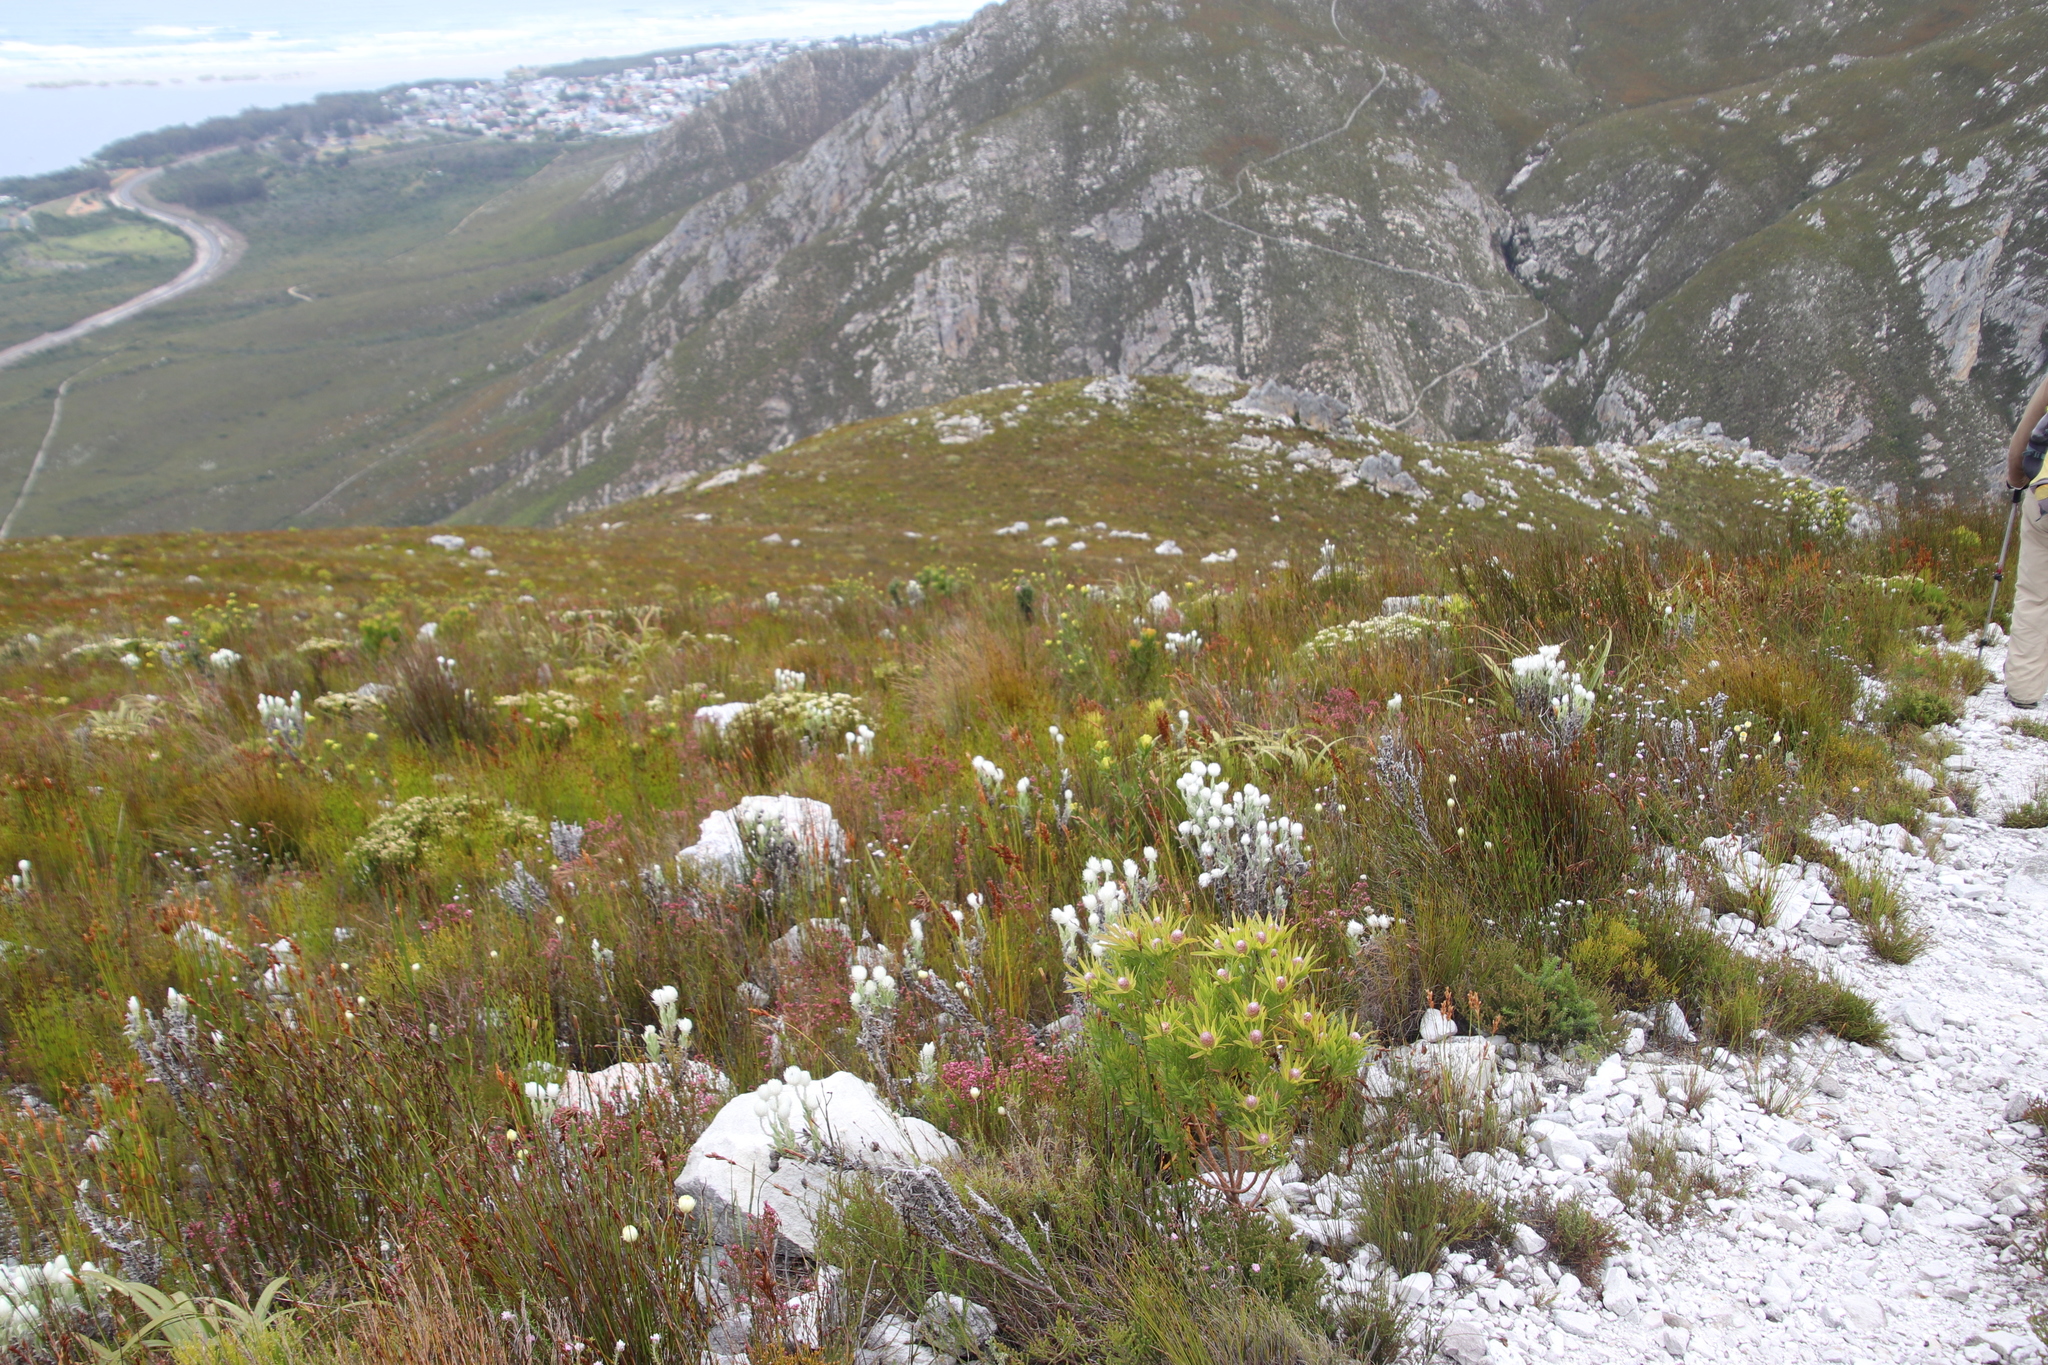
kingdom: Plantae
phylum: Tracheophyta
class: Magnoliopsida
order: Proteales
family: Proteaceae
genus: Leucadendron
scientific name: Leucadendron xanthoconus
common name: Sickle-leaf conebush
